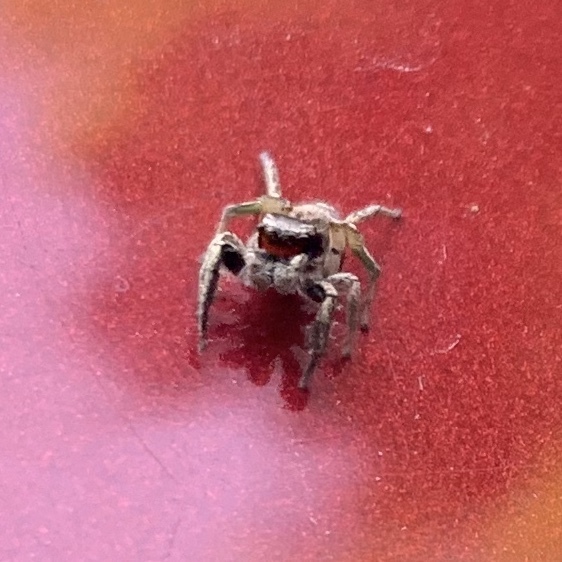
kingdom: Animalia
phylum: Arthropoda
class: Arachnida
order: Araneae
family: Salticidae
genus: Habronattus
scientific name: Habronattus coecatus
